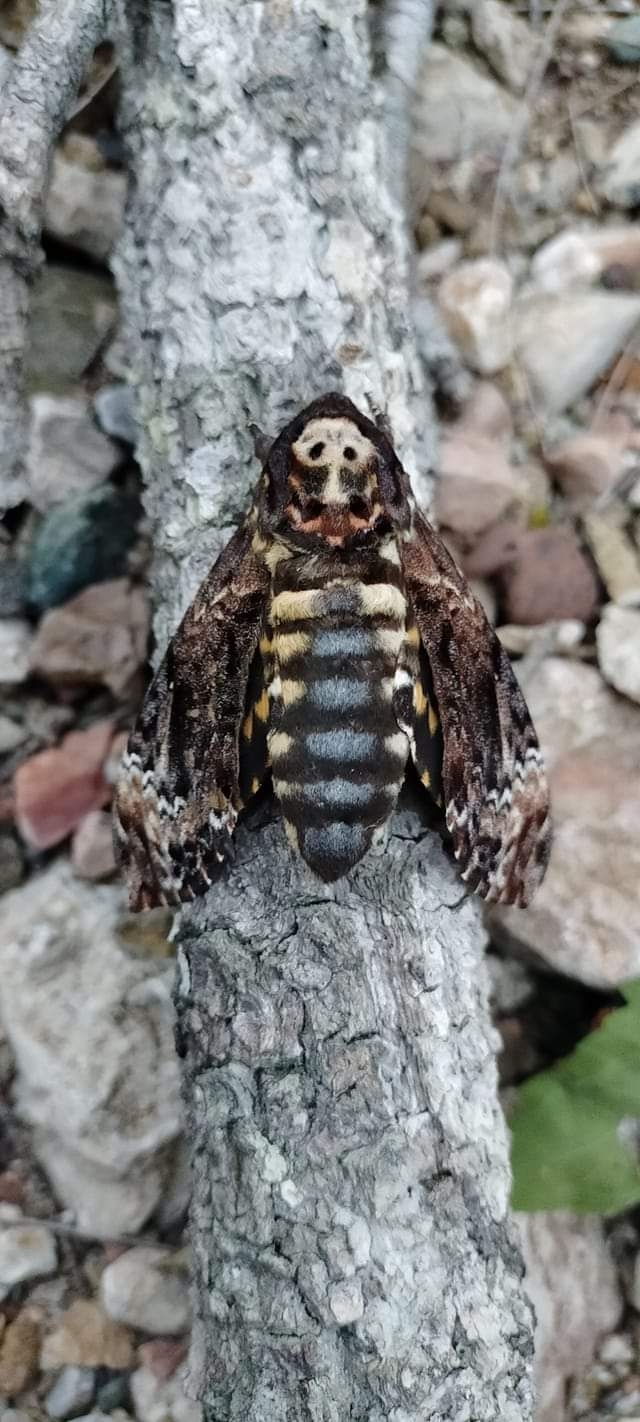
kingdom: Animalia
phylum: Arthropoda
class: Insecta
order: Lepidoptera
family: Sphingidae
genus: Acherontia
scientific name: Acherontia lachesis
